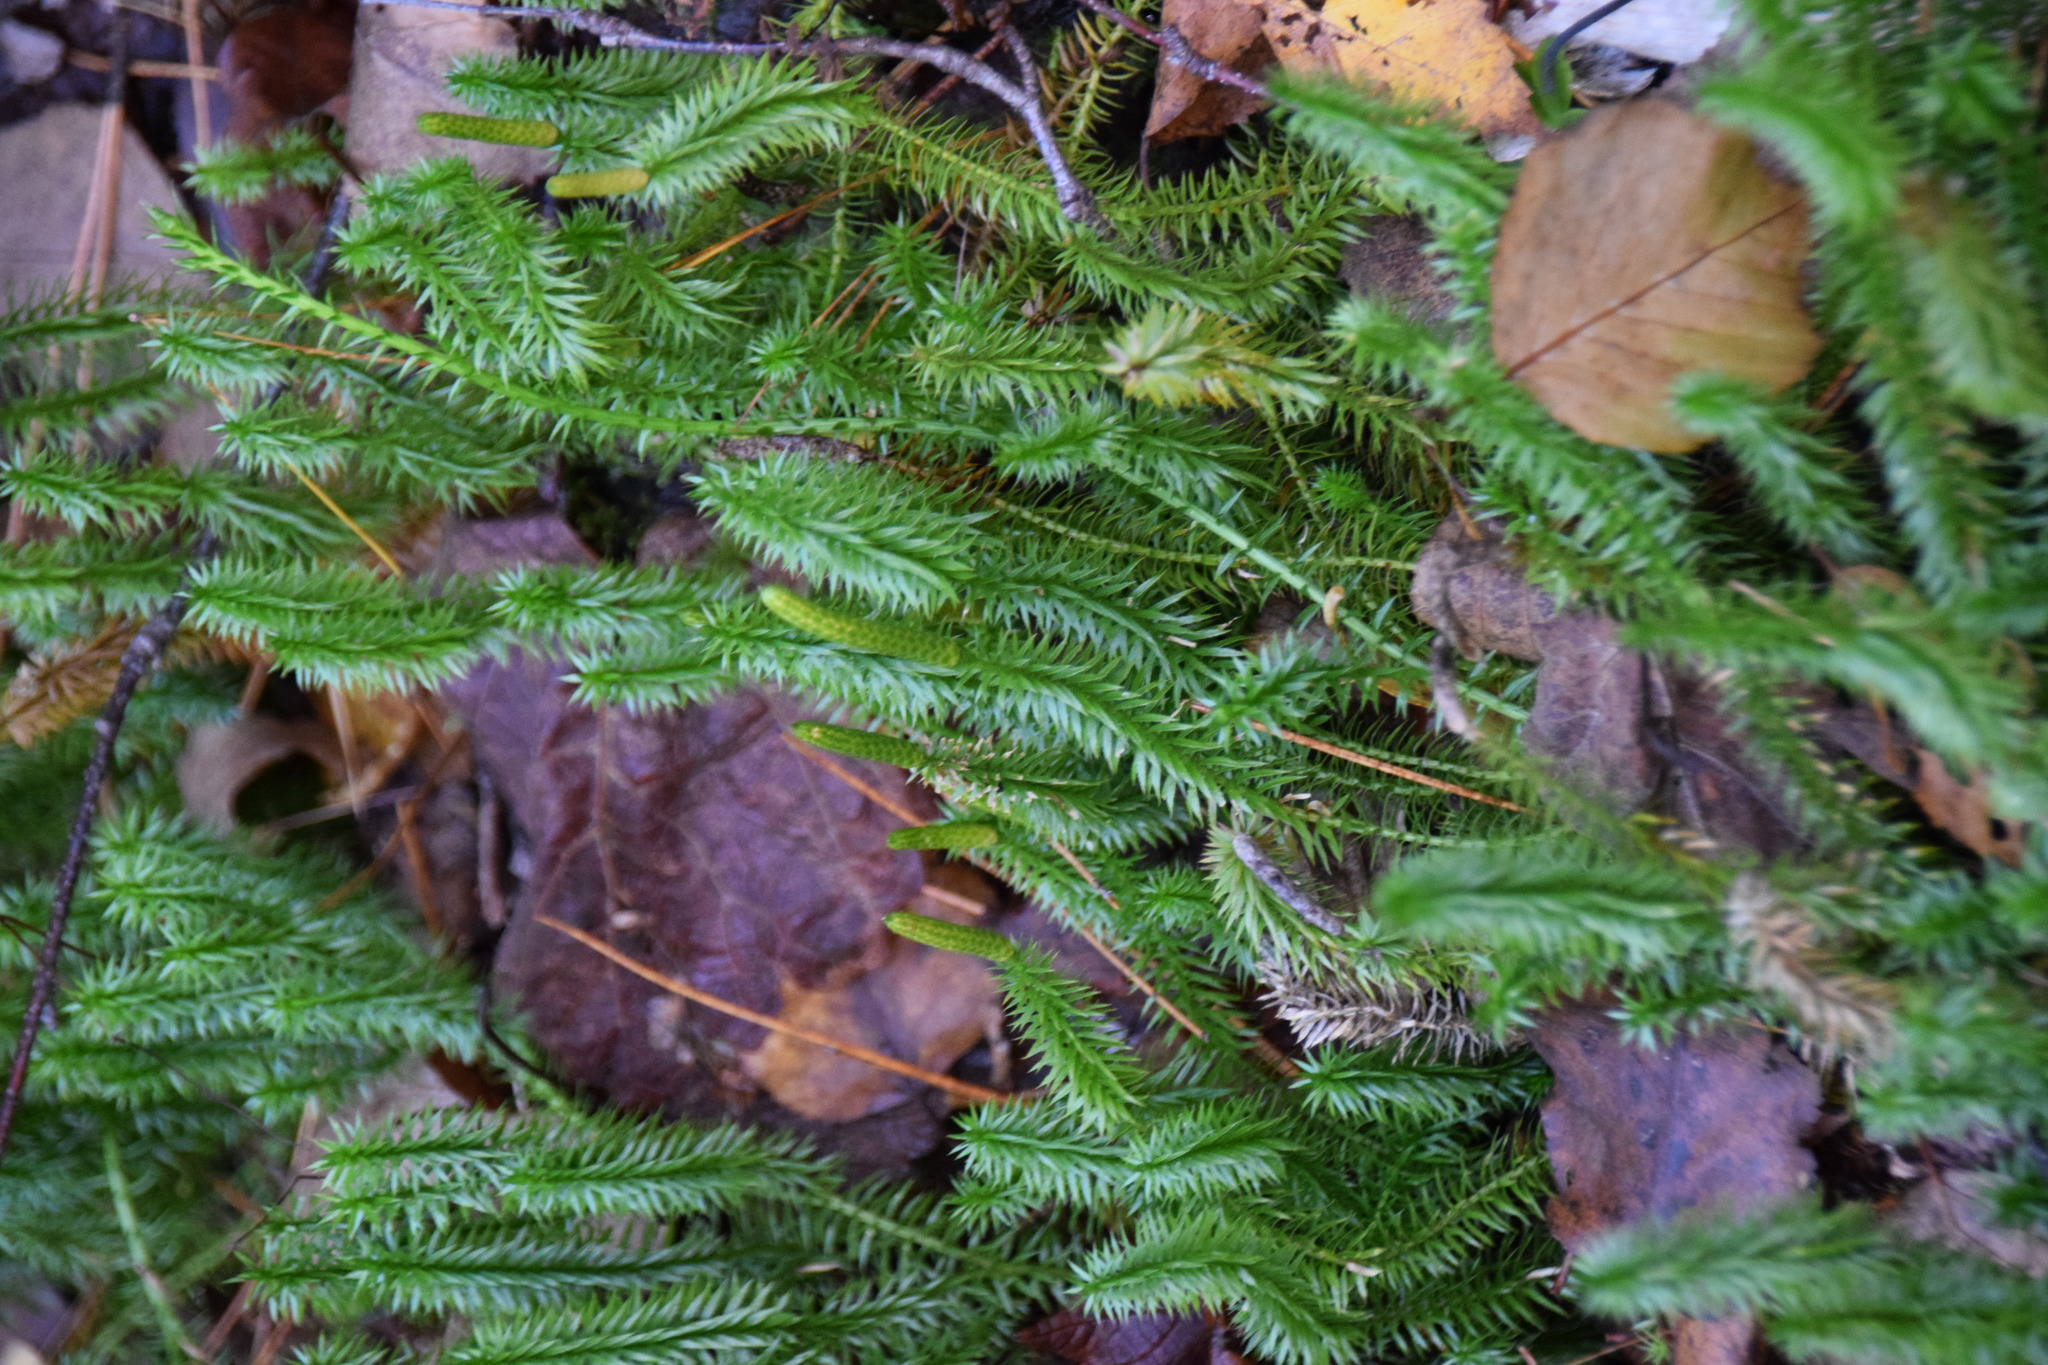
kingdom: Plantae
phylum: Tracheophyta
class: Lycopodiopsida
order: Lycopodiales
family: Lycopodiaceae
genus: Spinulum
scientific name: Spinulum annotinum
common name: Interrupted club-moss
